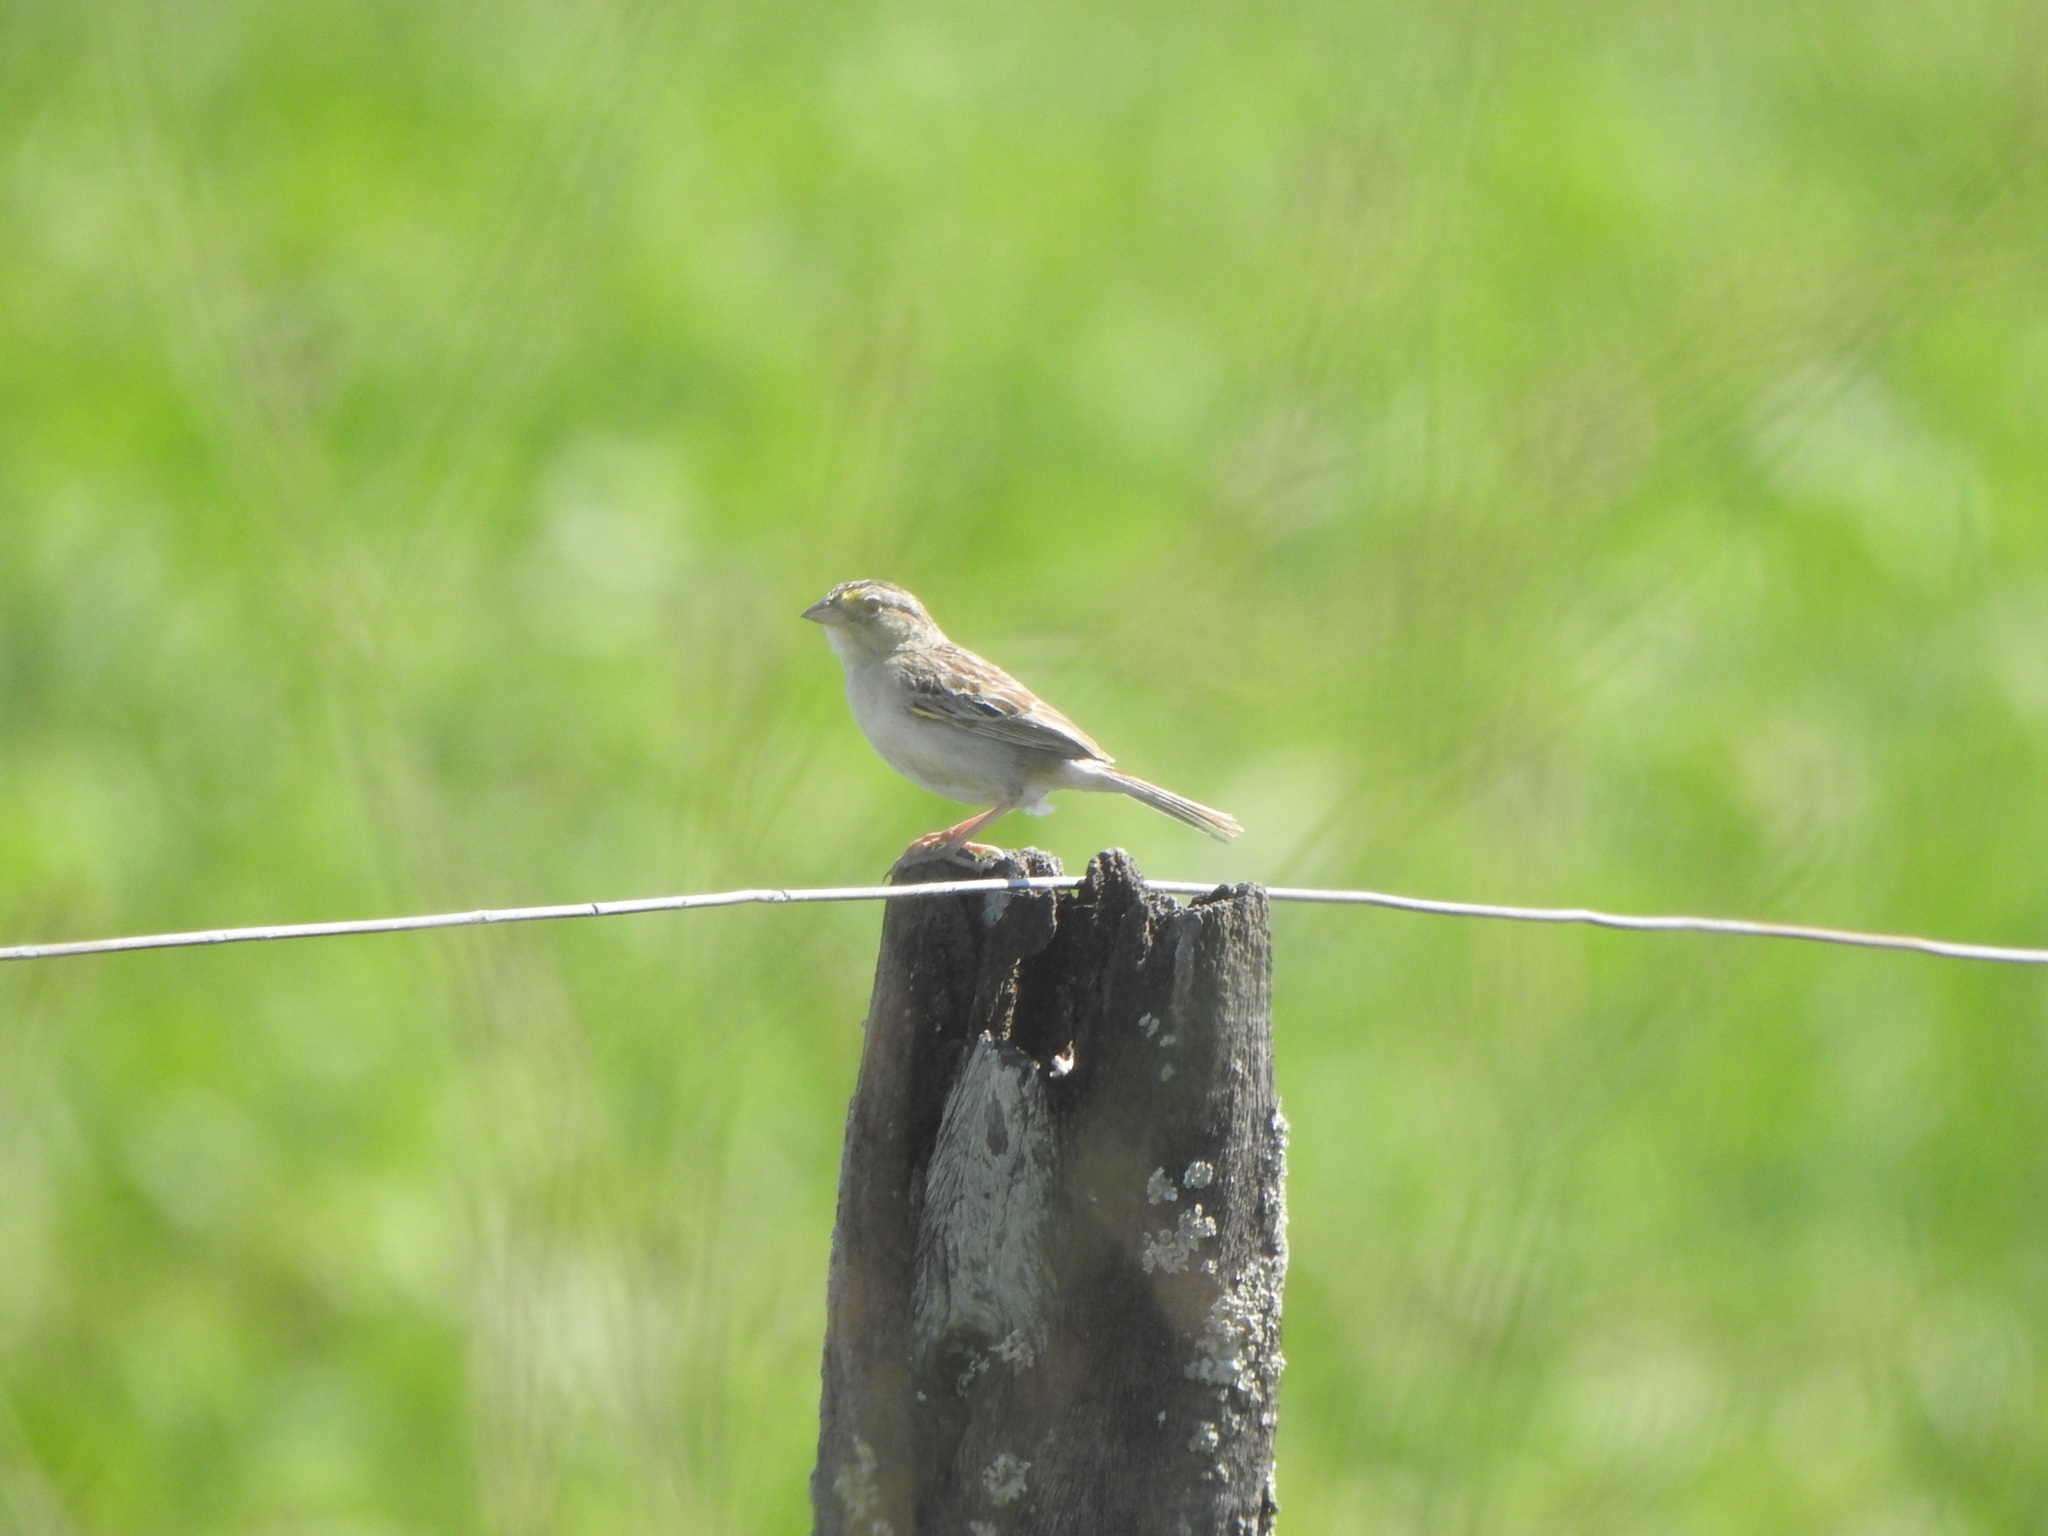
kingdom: Animalia
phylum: Chordata
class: Aves
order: Passeriformes
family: Passerellidae
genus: Ammodramus
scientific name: Ammodramus humeralis
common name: Grassland sparrow
